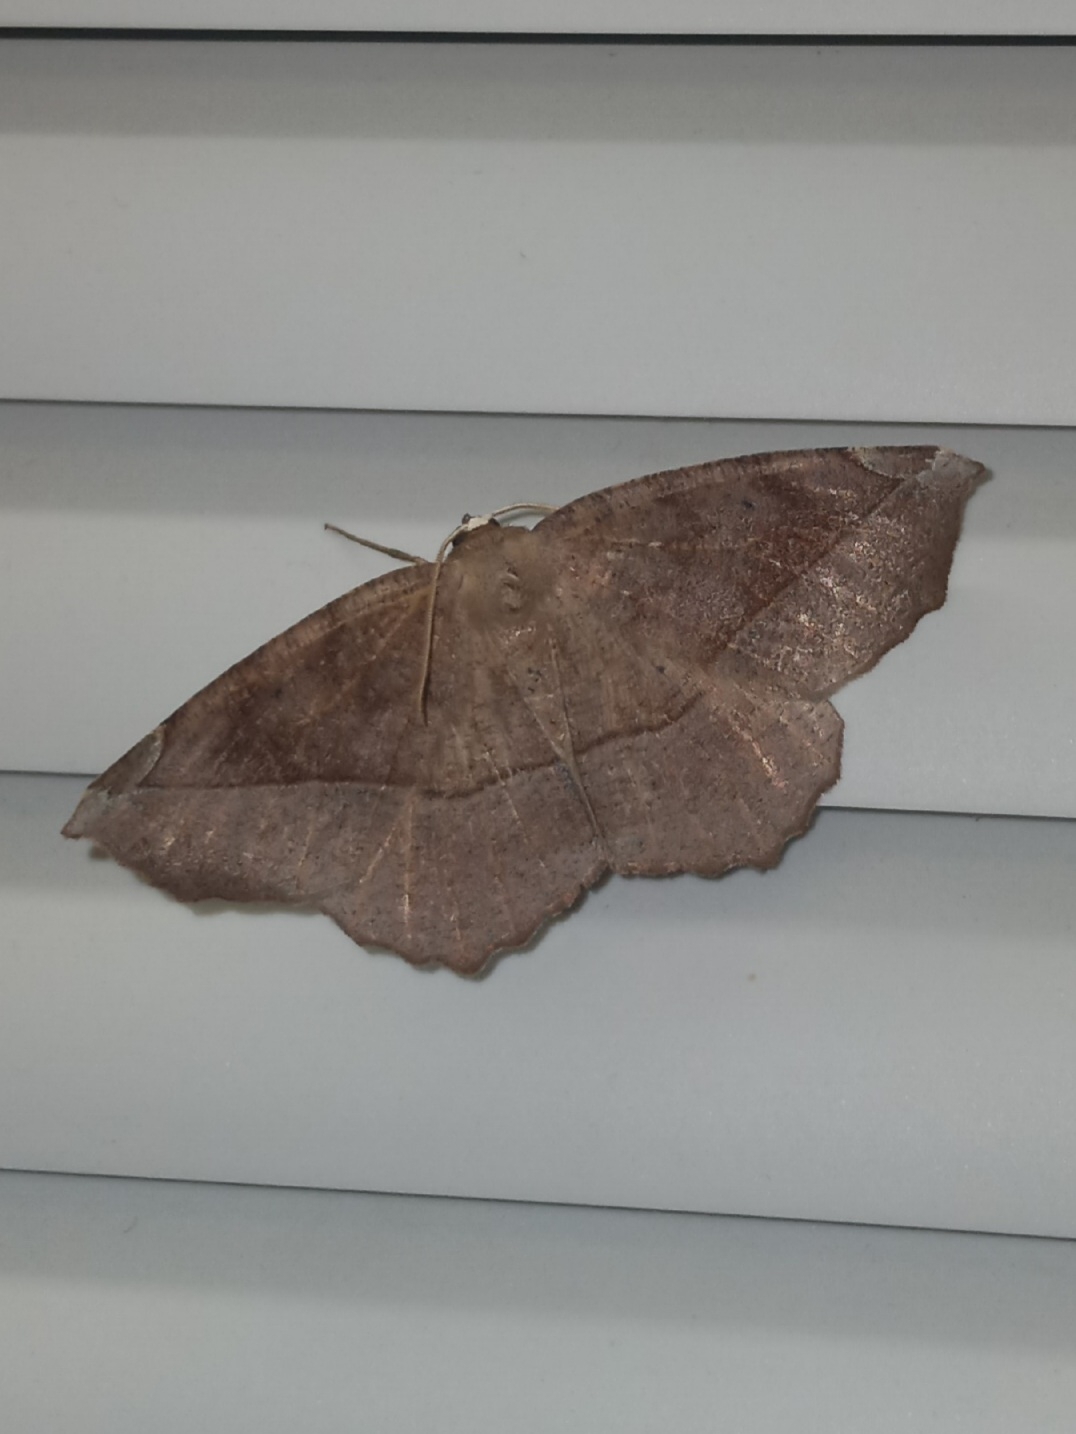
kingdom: Animalia
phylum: Arthropoda
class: Insecta
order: Lepidoptera
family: Geometridae
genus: Eutrapela
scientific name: Eutrapela clemataria
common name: Curved-toothed geometer
